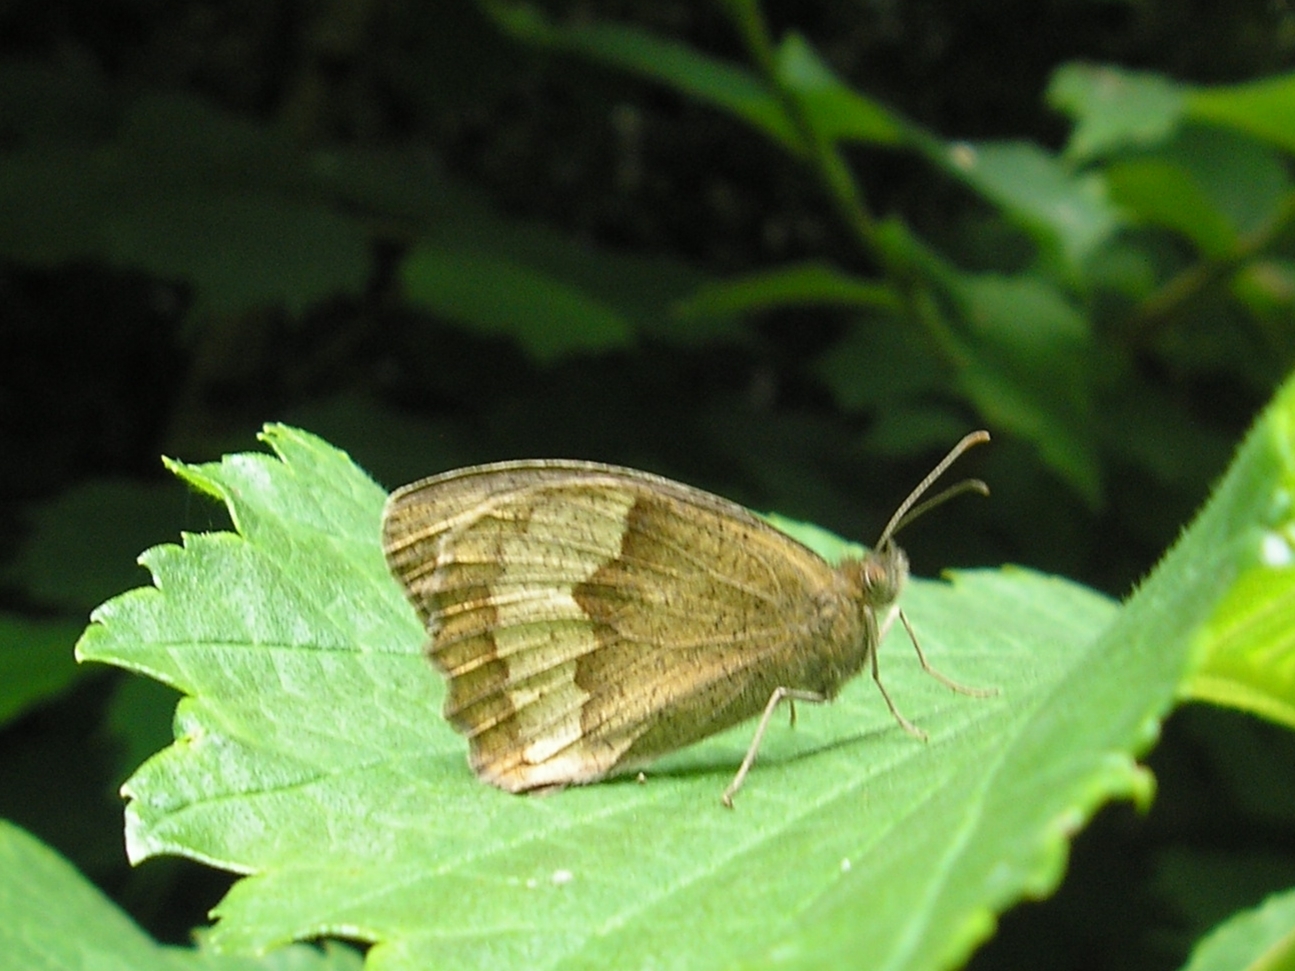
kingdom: Animalia
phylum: Arthropoda
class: Insecta
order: Lepidoptera
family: Nymphalidae
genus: Maniola
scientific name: Maniola jurtina
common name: Meadow brown
